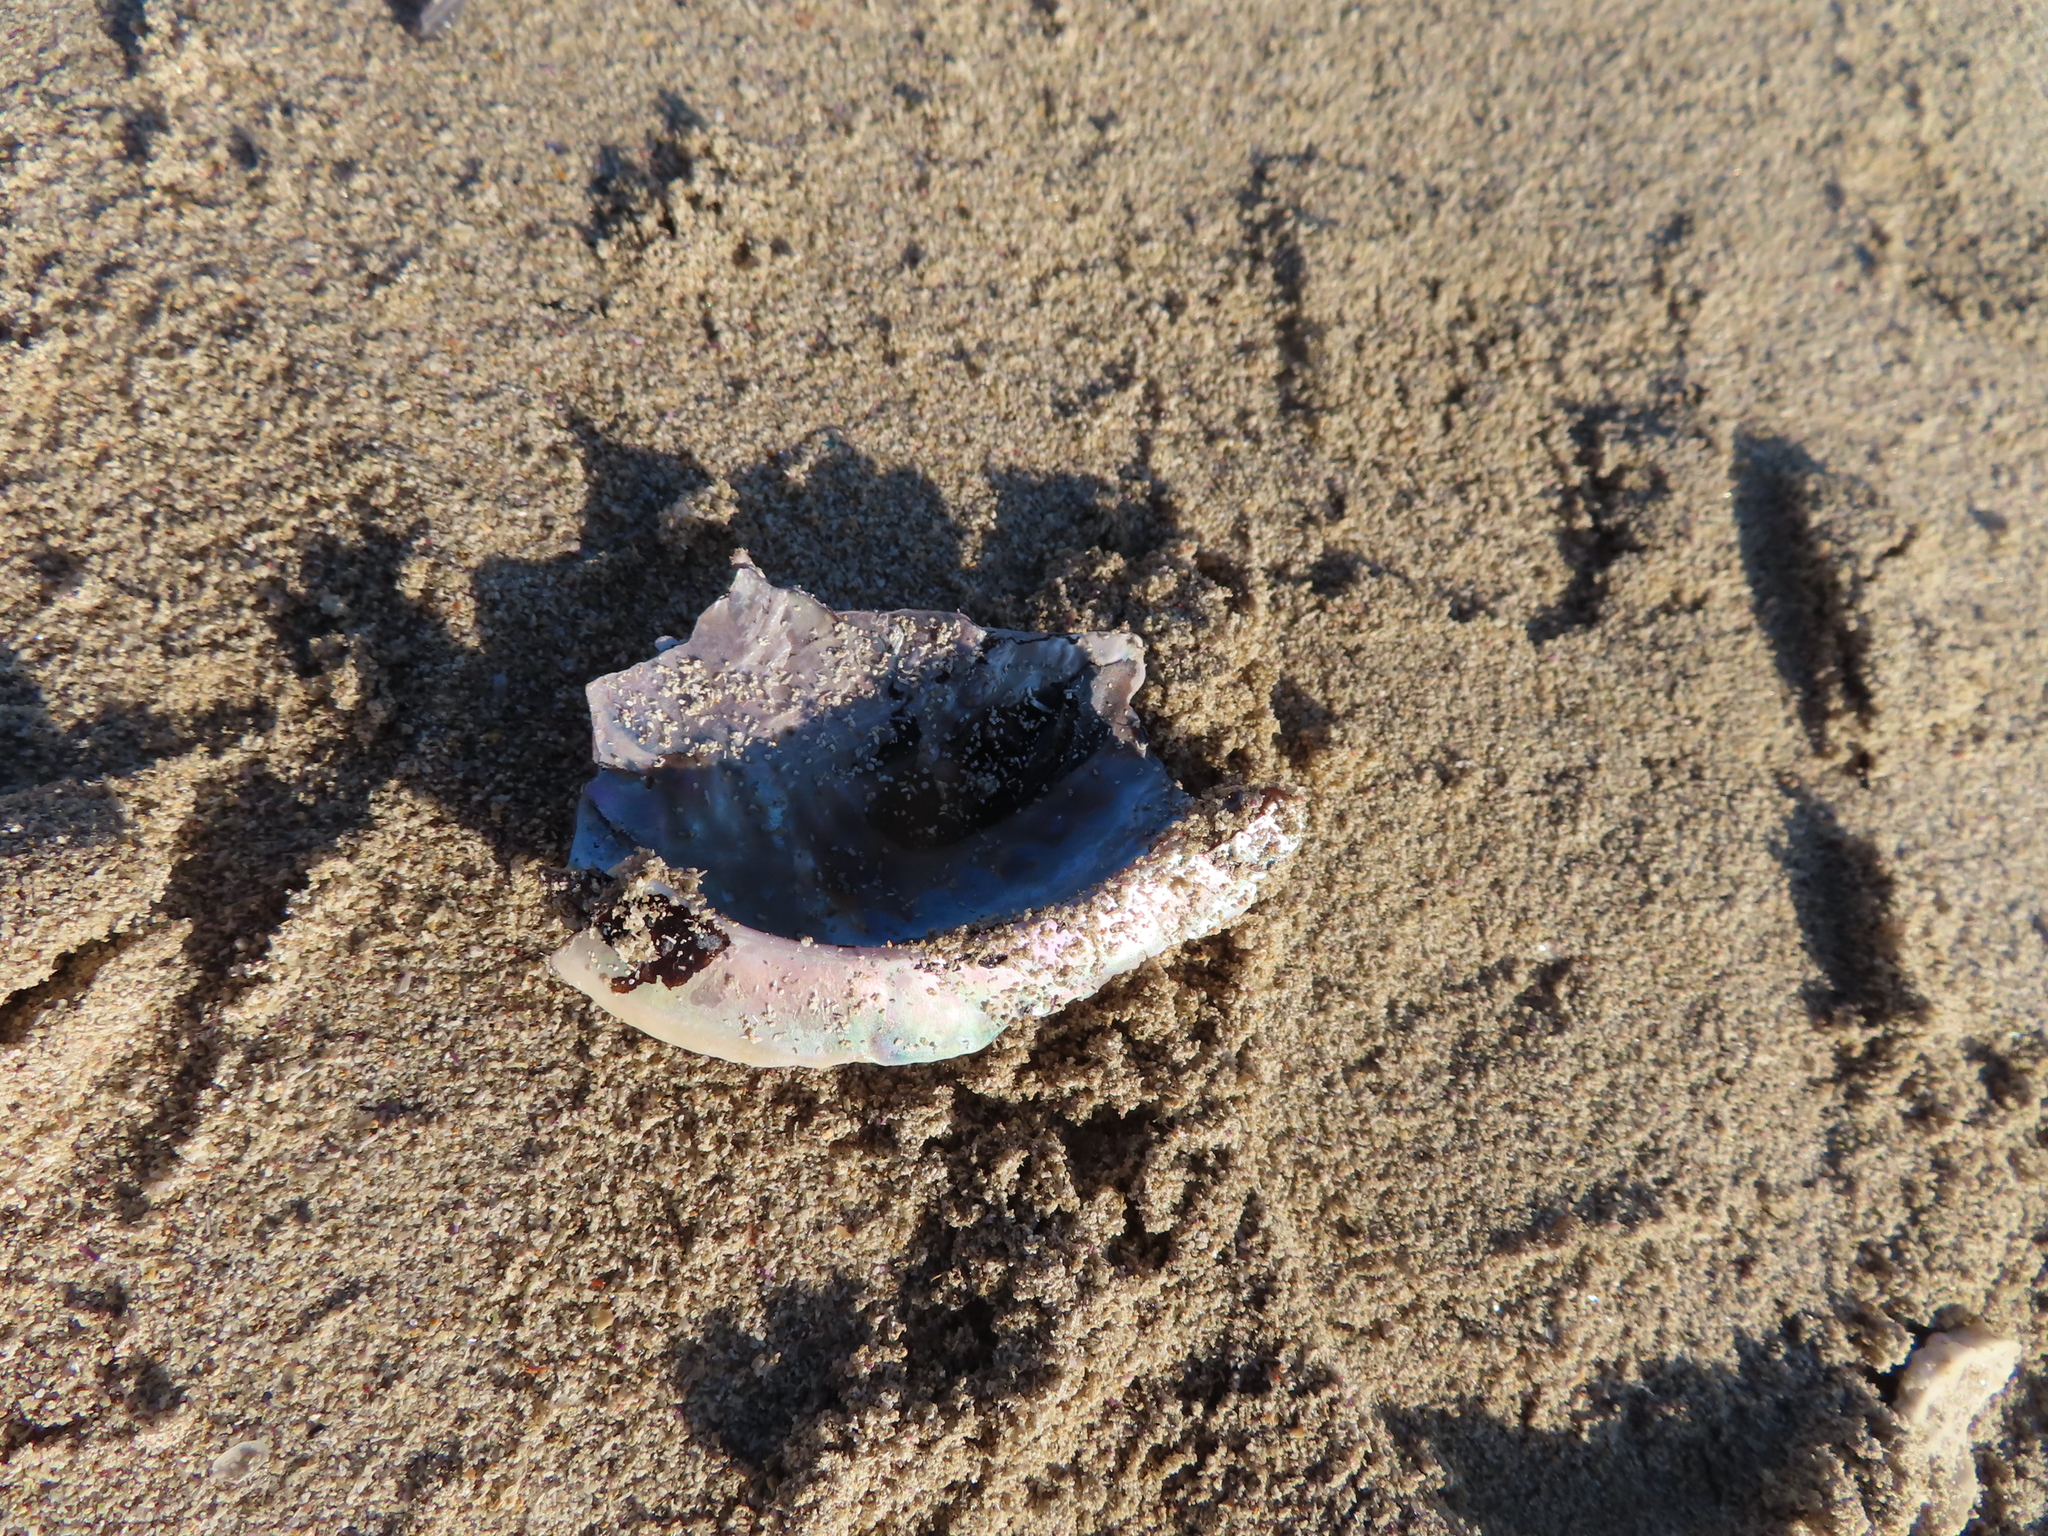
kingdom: Animalia
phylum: Mollusca
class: Gastropoda
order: Lepetellida
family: Haliotidae
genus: Haliotis
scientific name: Haliotis midae
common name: Perlemoen
